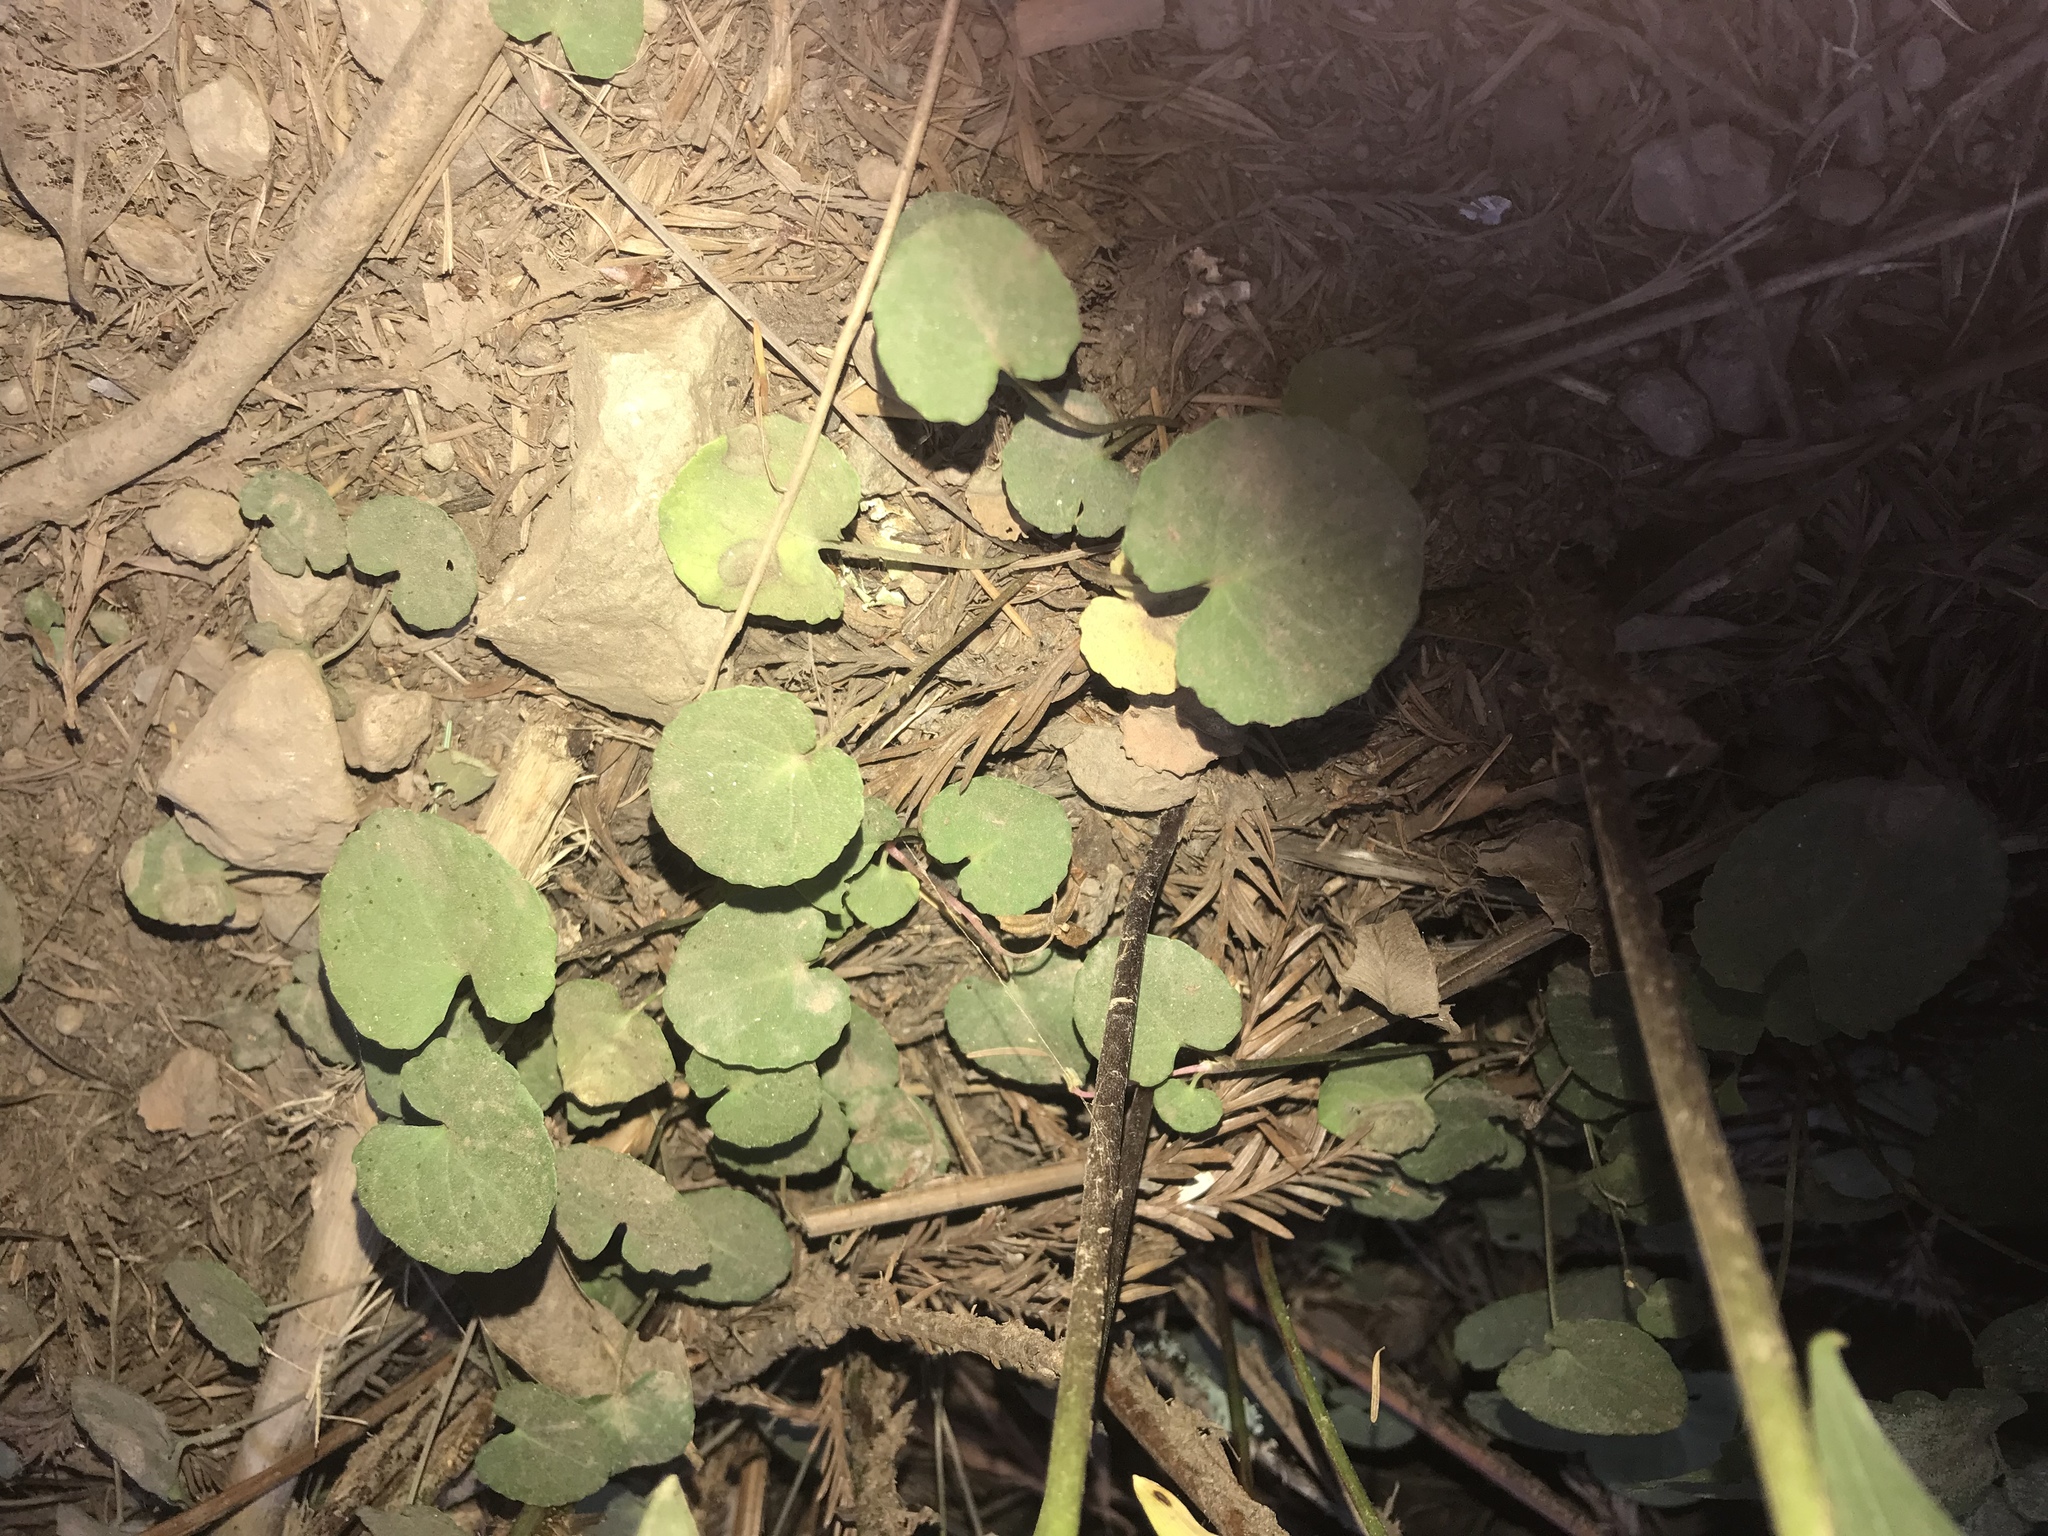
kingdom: Plantae
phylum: Tracheophyta
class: Magnoliopsida
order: Malpighiales
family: Violaceae
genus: Viola
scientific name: Viola sempervirens
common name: Evergreen violet
